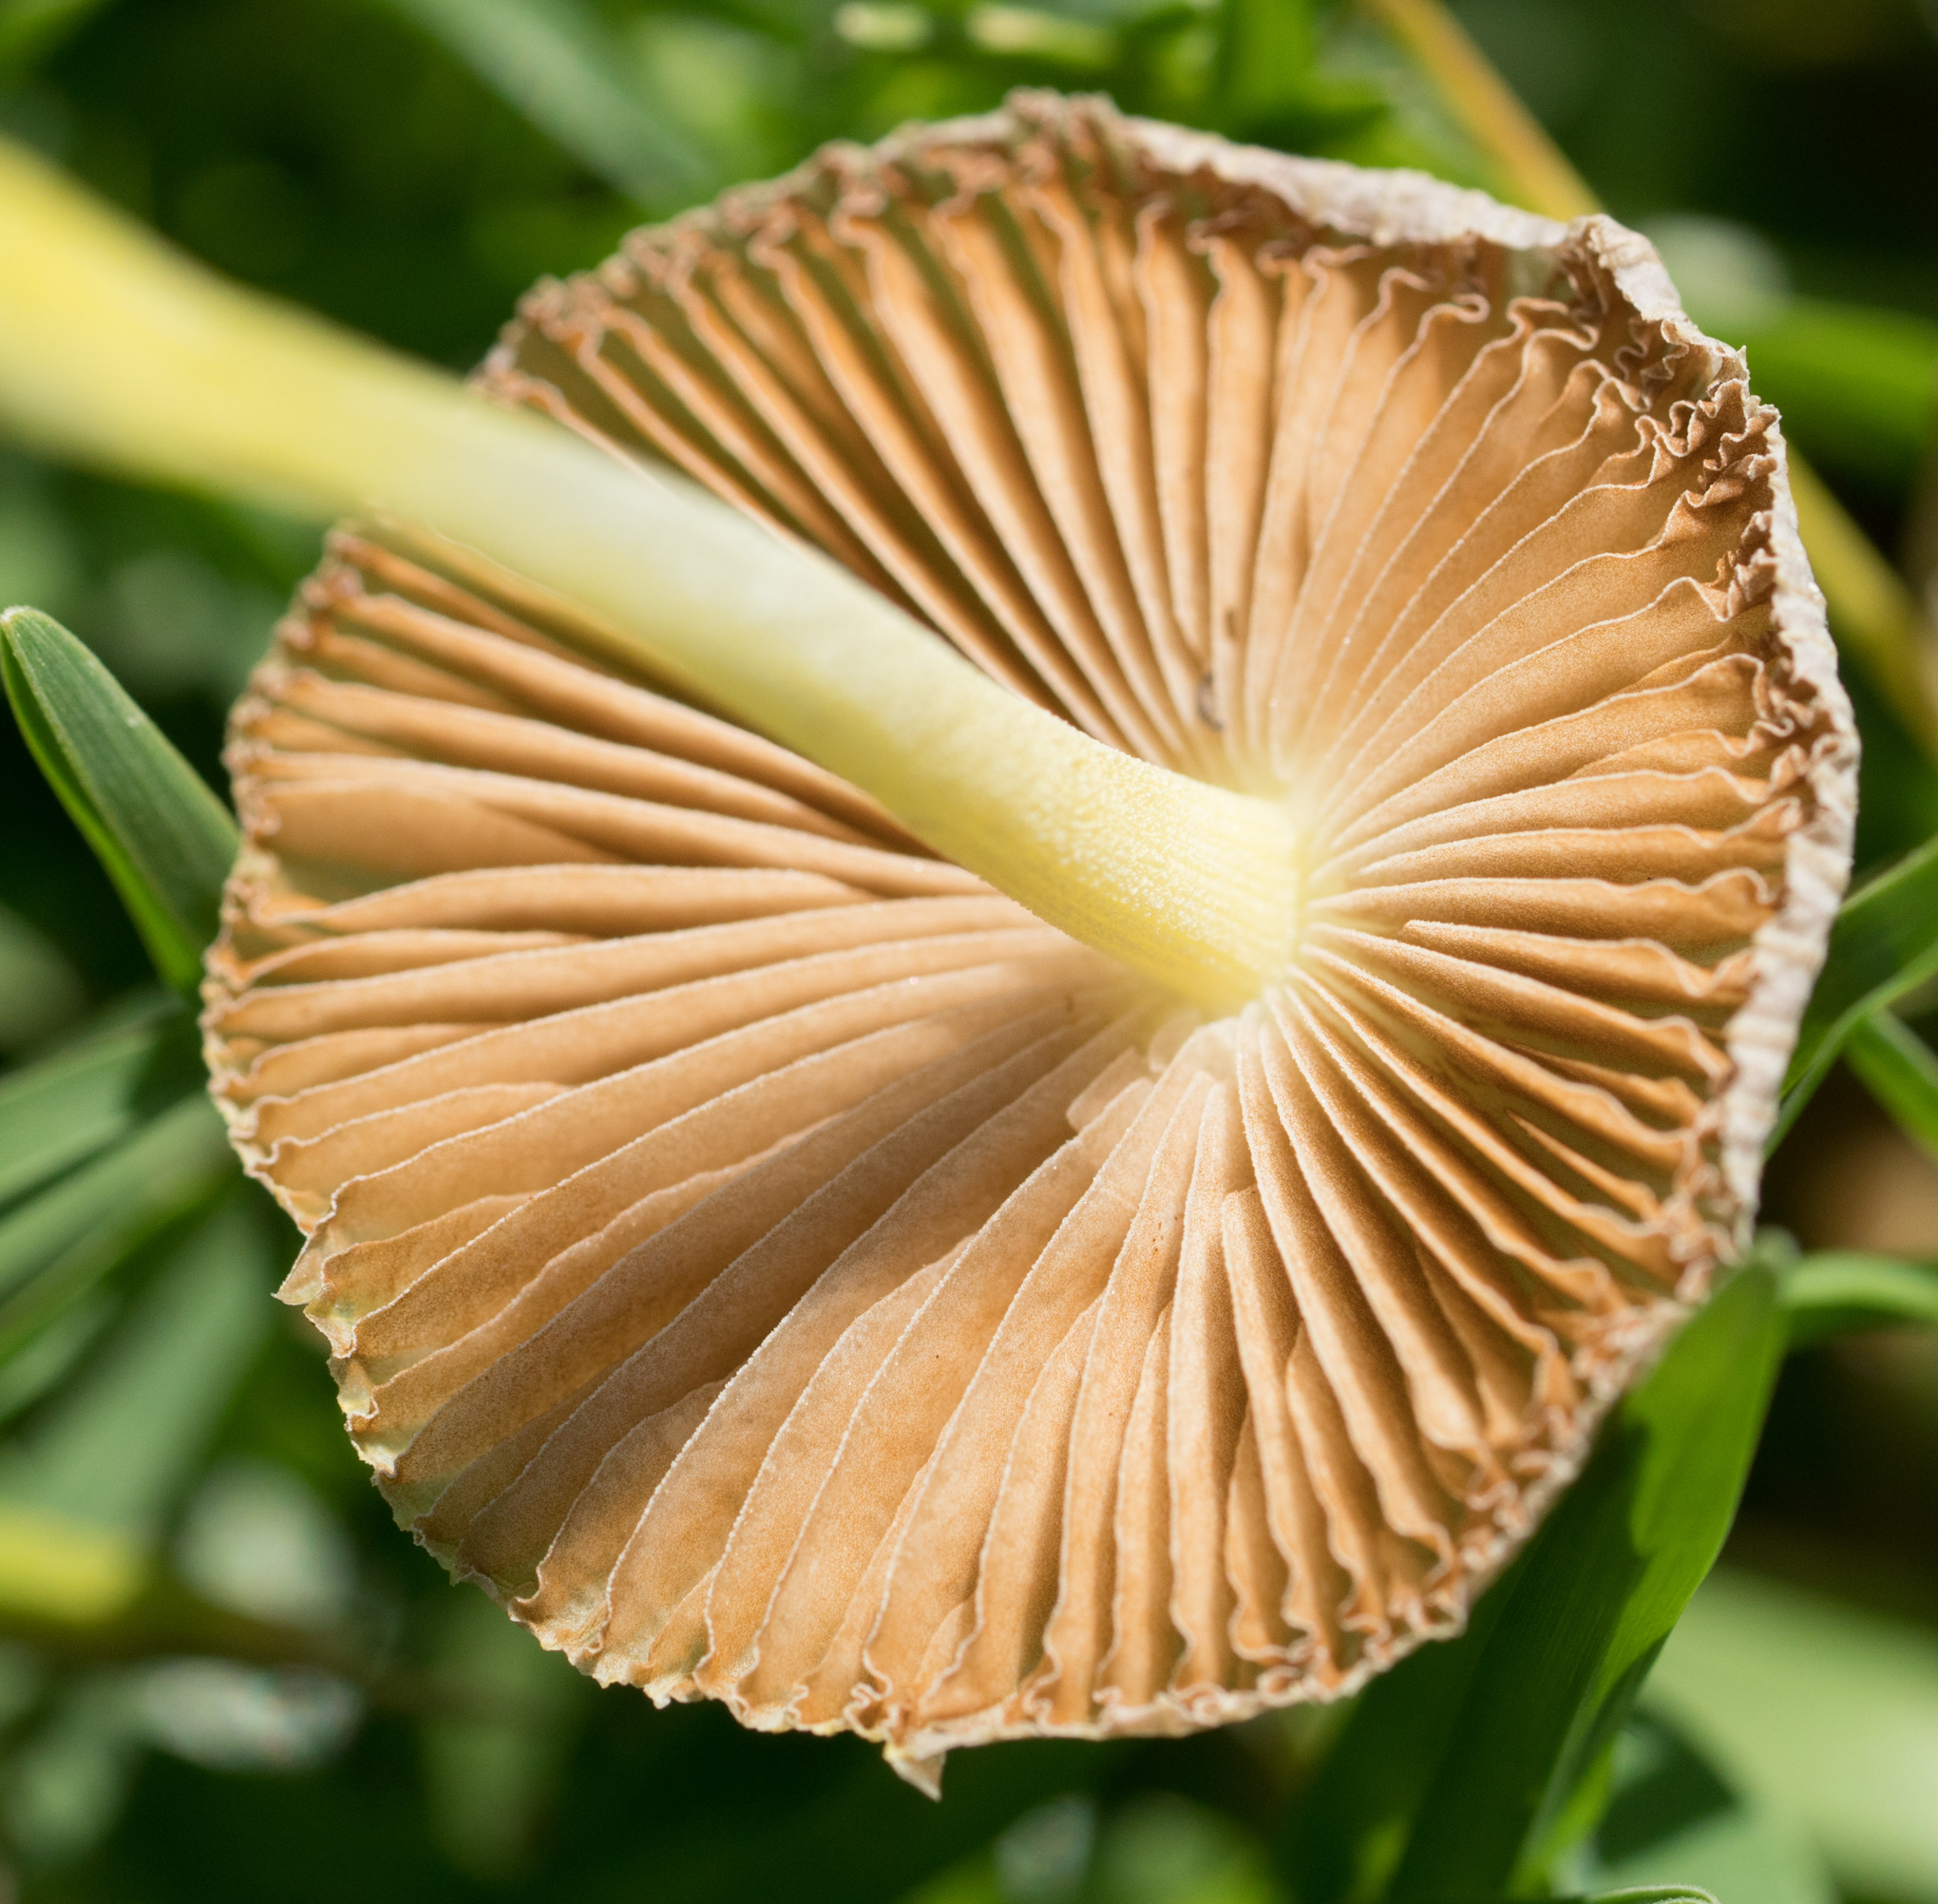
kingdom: Fungi
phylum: Basidiomycota
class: Agaricomycetes
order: Agaricales
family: Bolbitiaceae
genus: Bolbitius
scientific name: Bolbitius titubans
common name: Yellow fieldcap
